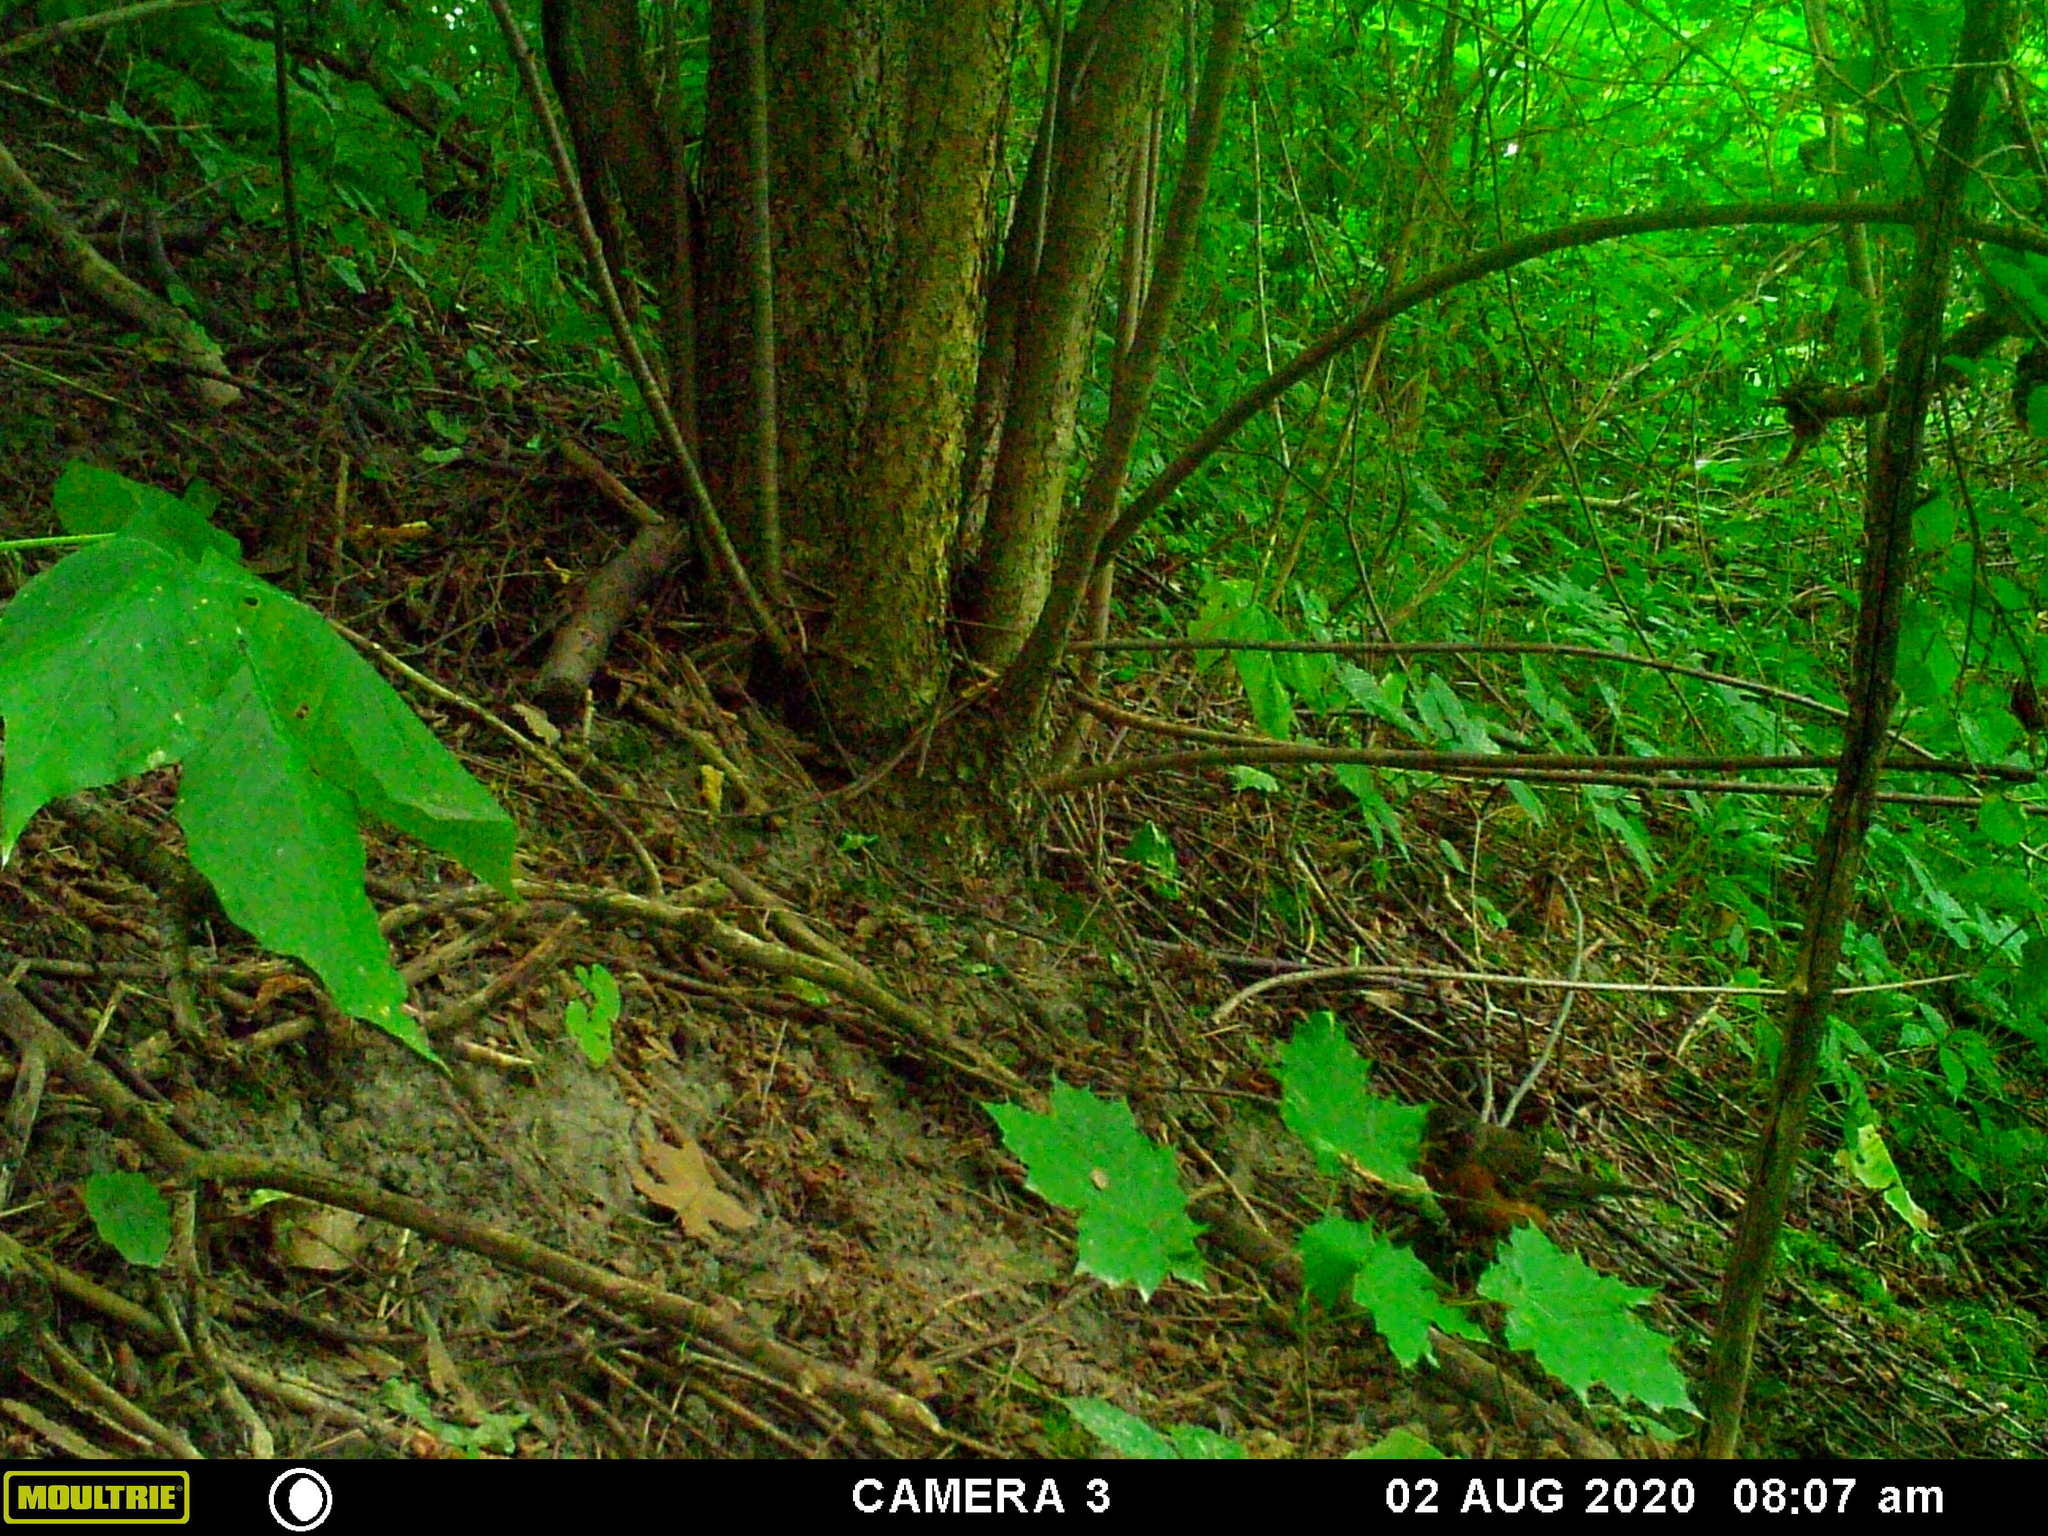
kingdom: Animalia
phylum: Chordata
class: Aves
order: Passeriformes
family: Turdidae
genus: Turdus
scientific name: Turdus migratorius
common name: American robin
